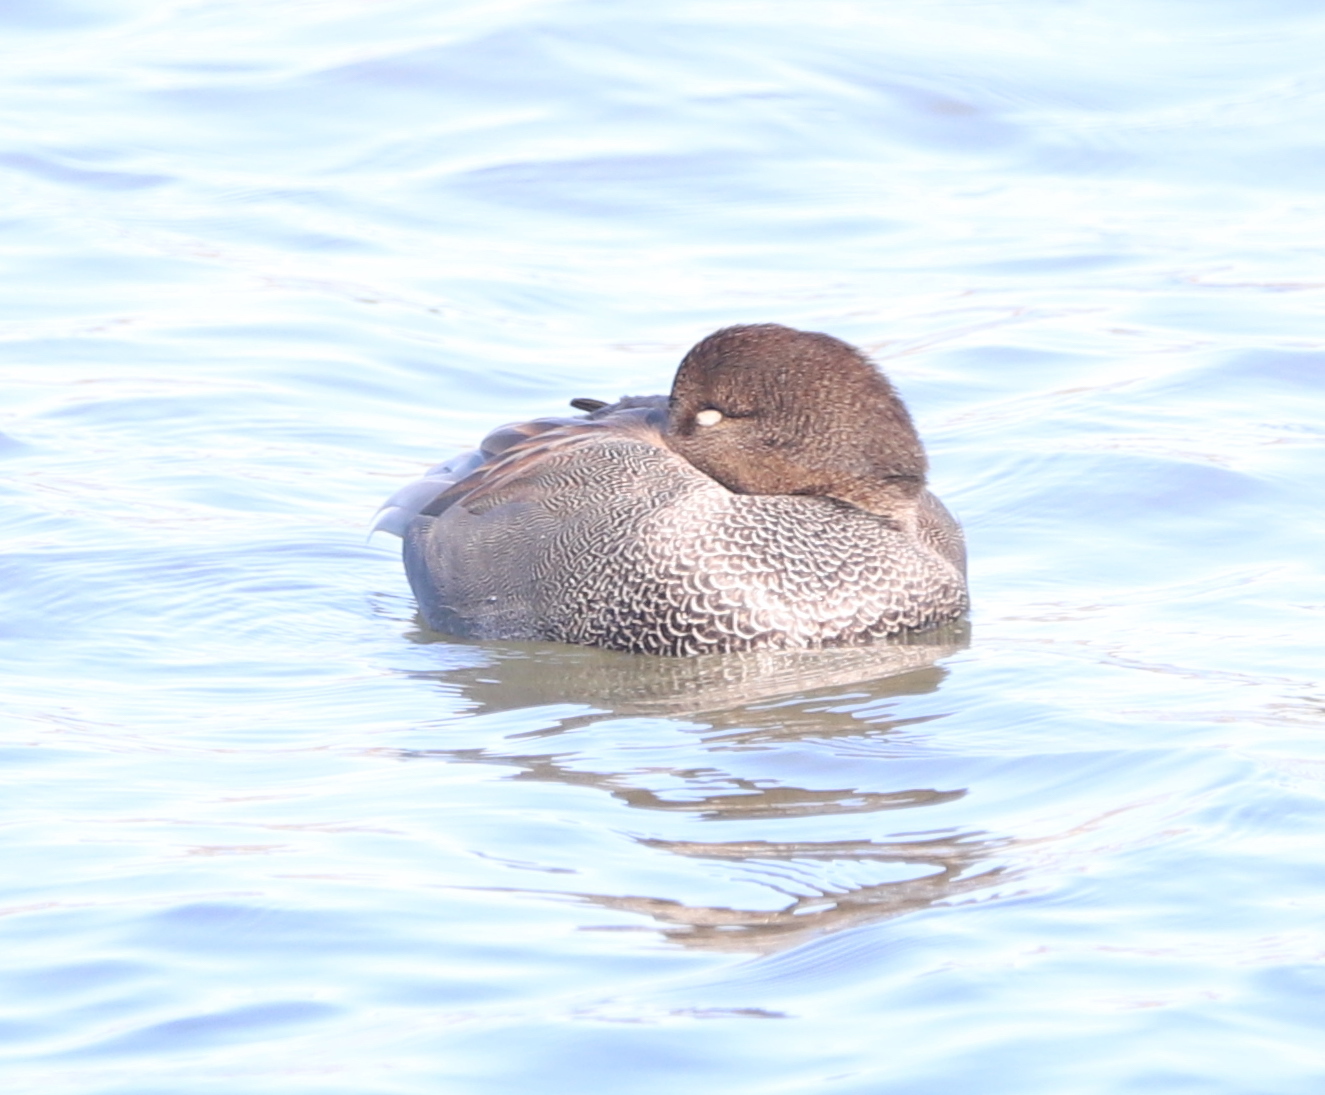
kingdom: Animalia
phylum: Chordata
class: Aves
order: Anseriformes
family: Anatidae
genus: Mareca
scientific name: Mareca strepera
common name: Gadwall
